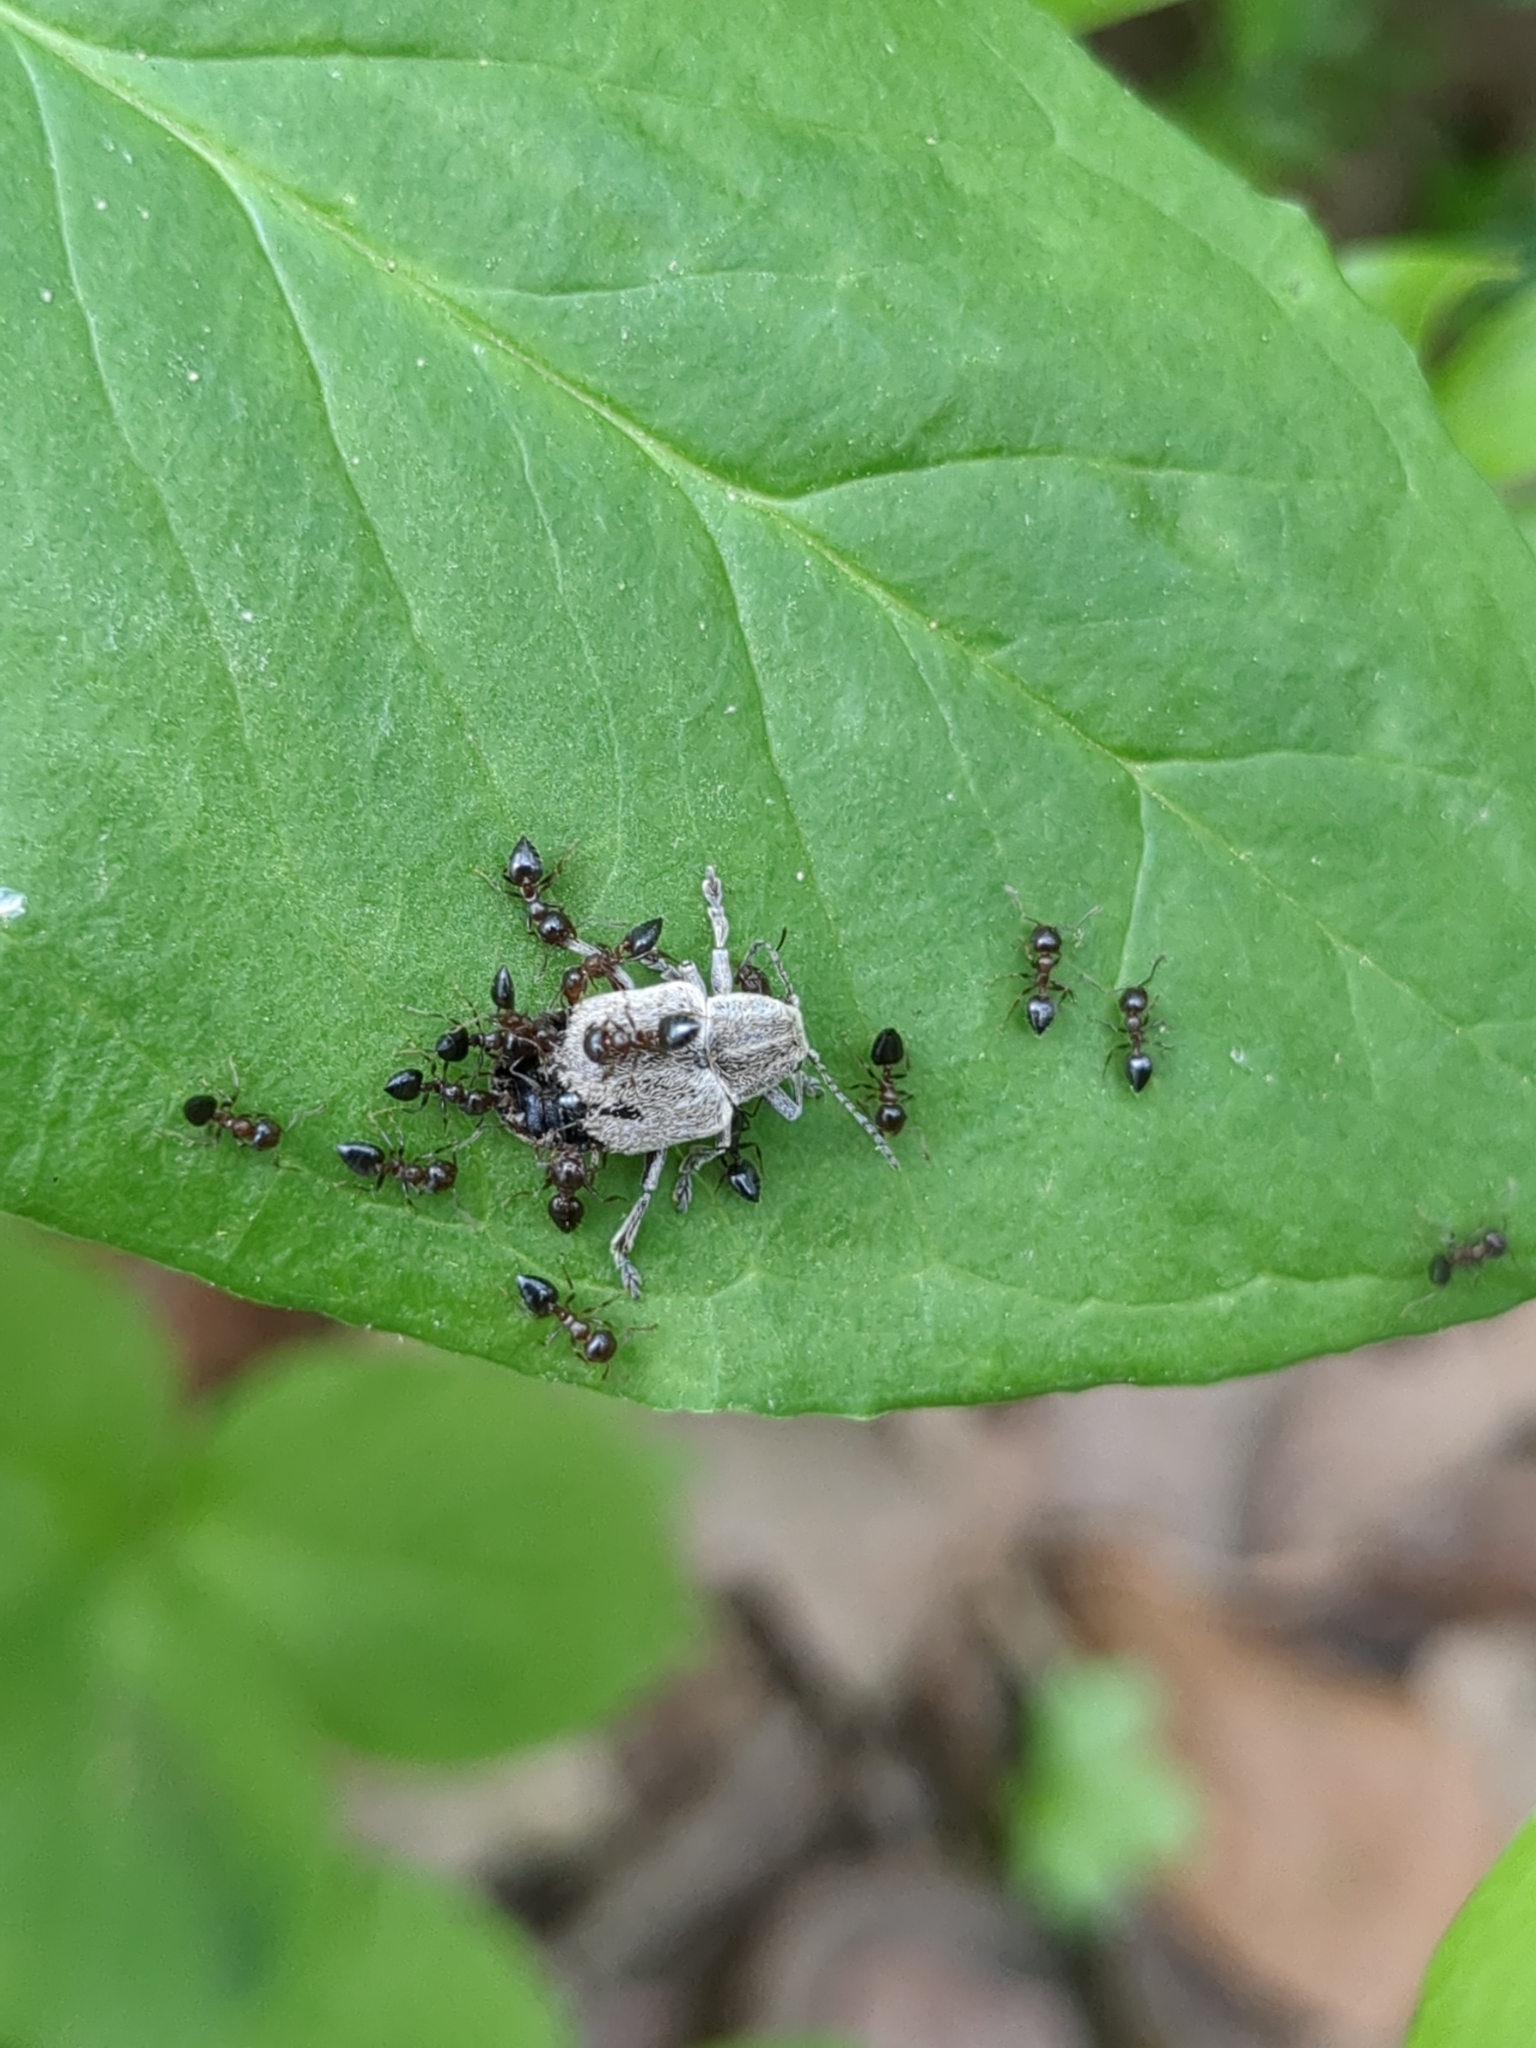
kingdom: Animalia
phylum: Arthropoda
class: Insecta
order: Coleoptera
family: Chrysomelidae
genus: Glyptoscelis
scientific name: Glyptoscelis albicans
